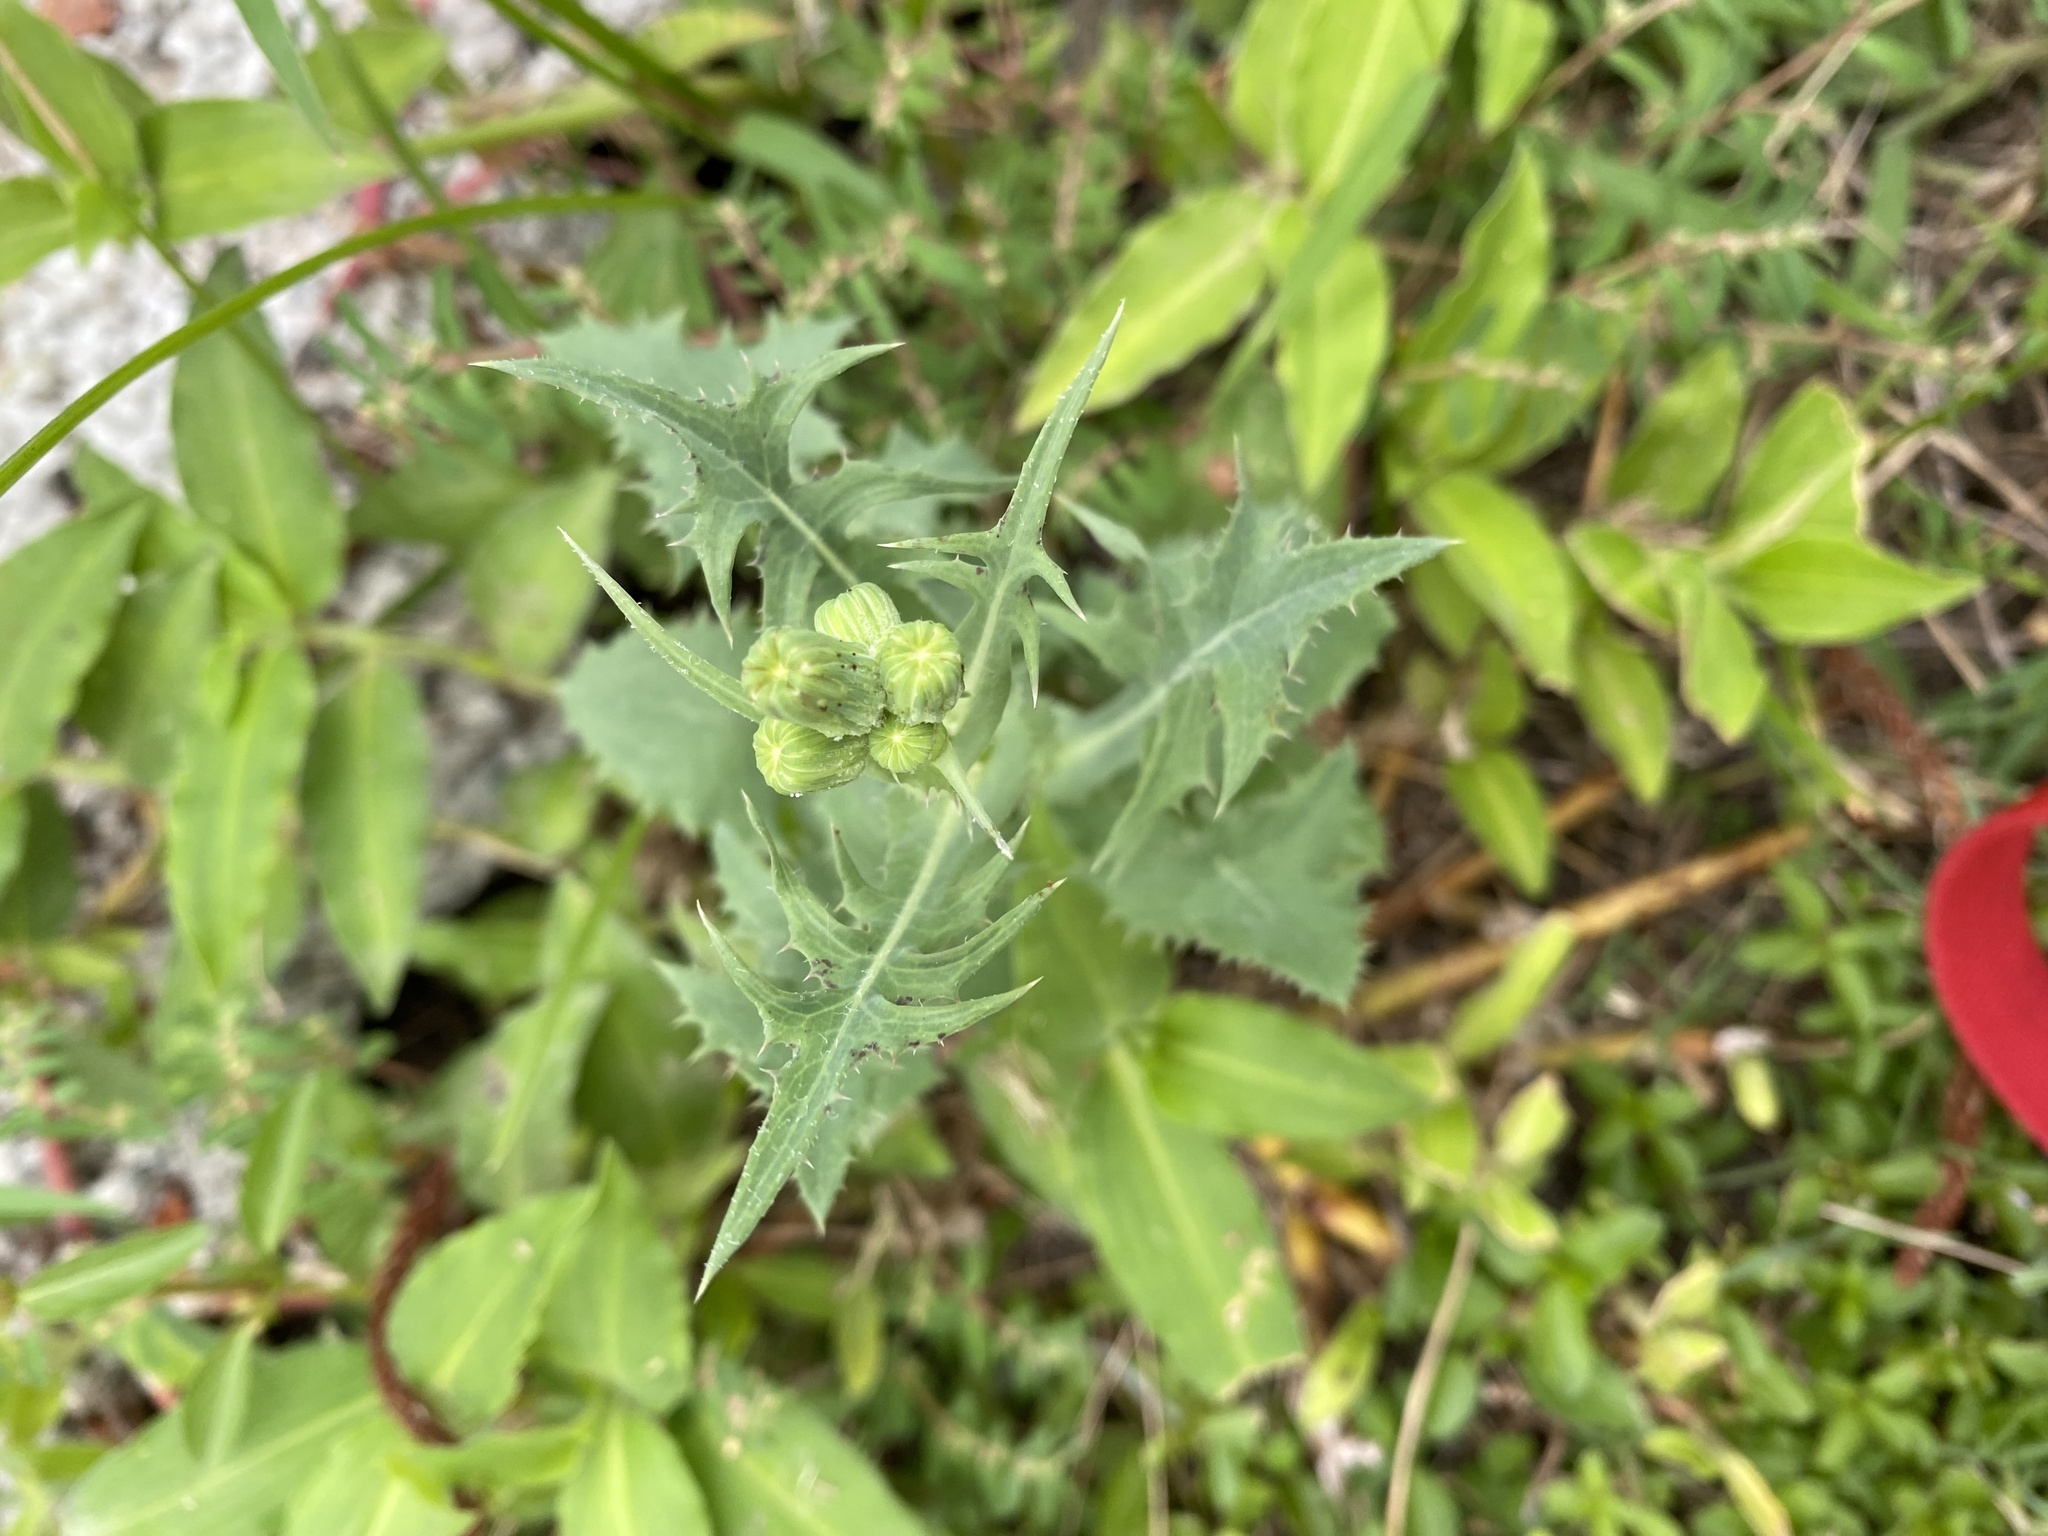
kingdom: Plantae
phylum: Tracheophyta
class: Magnoliopsida
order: Asterales
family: Asteraceae
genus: Sonchus
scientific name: Sonchus oleraceus
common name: Common sowthistle
